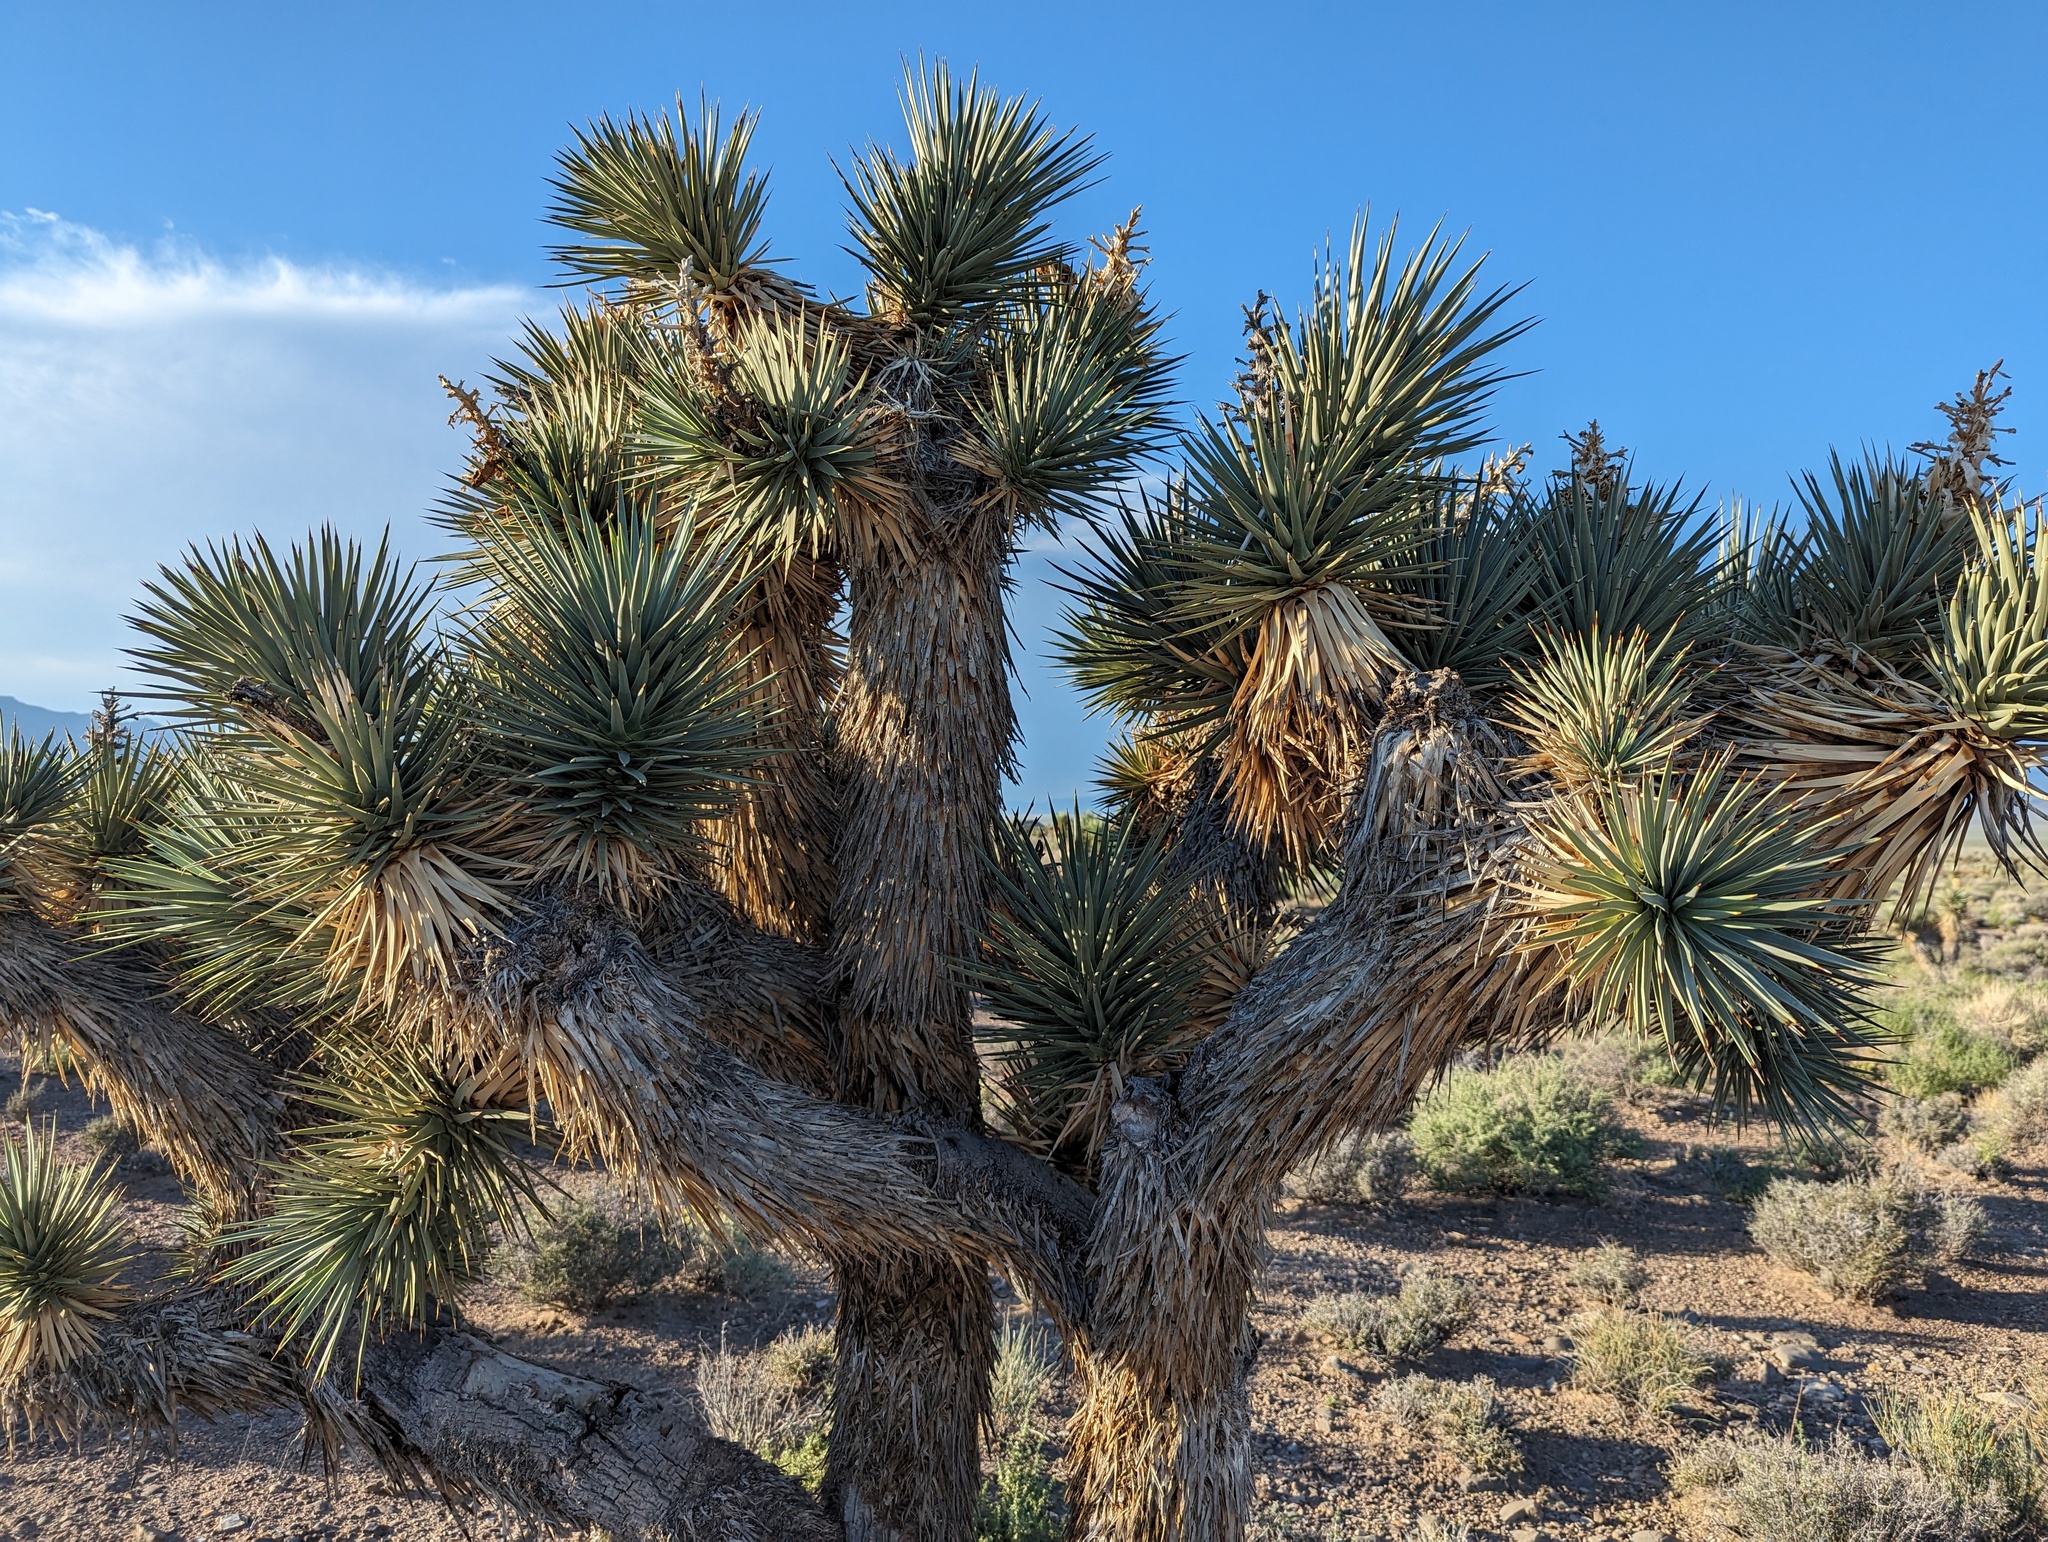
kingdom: Plantae
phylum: Tracheophyta
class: Liliopsida
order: Asparagales
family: Asparagaceae
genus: Yucca
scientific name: Yucca brevifolia
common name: Joshua tree
